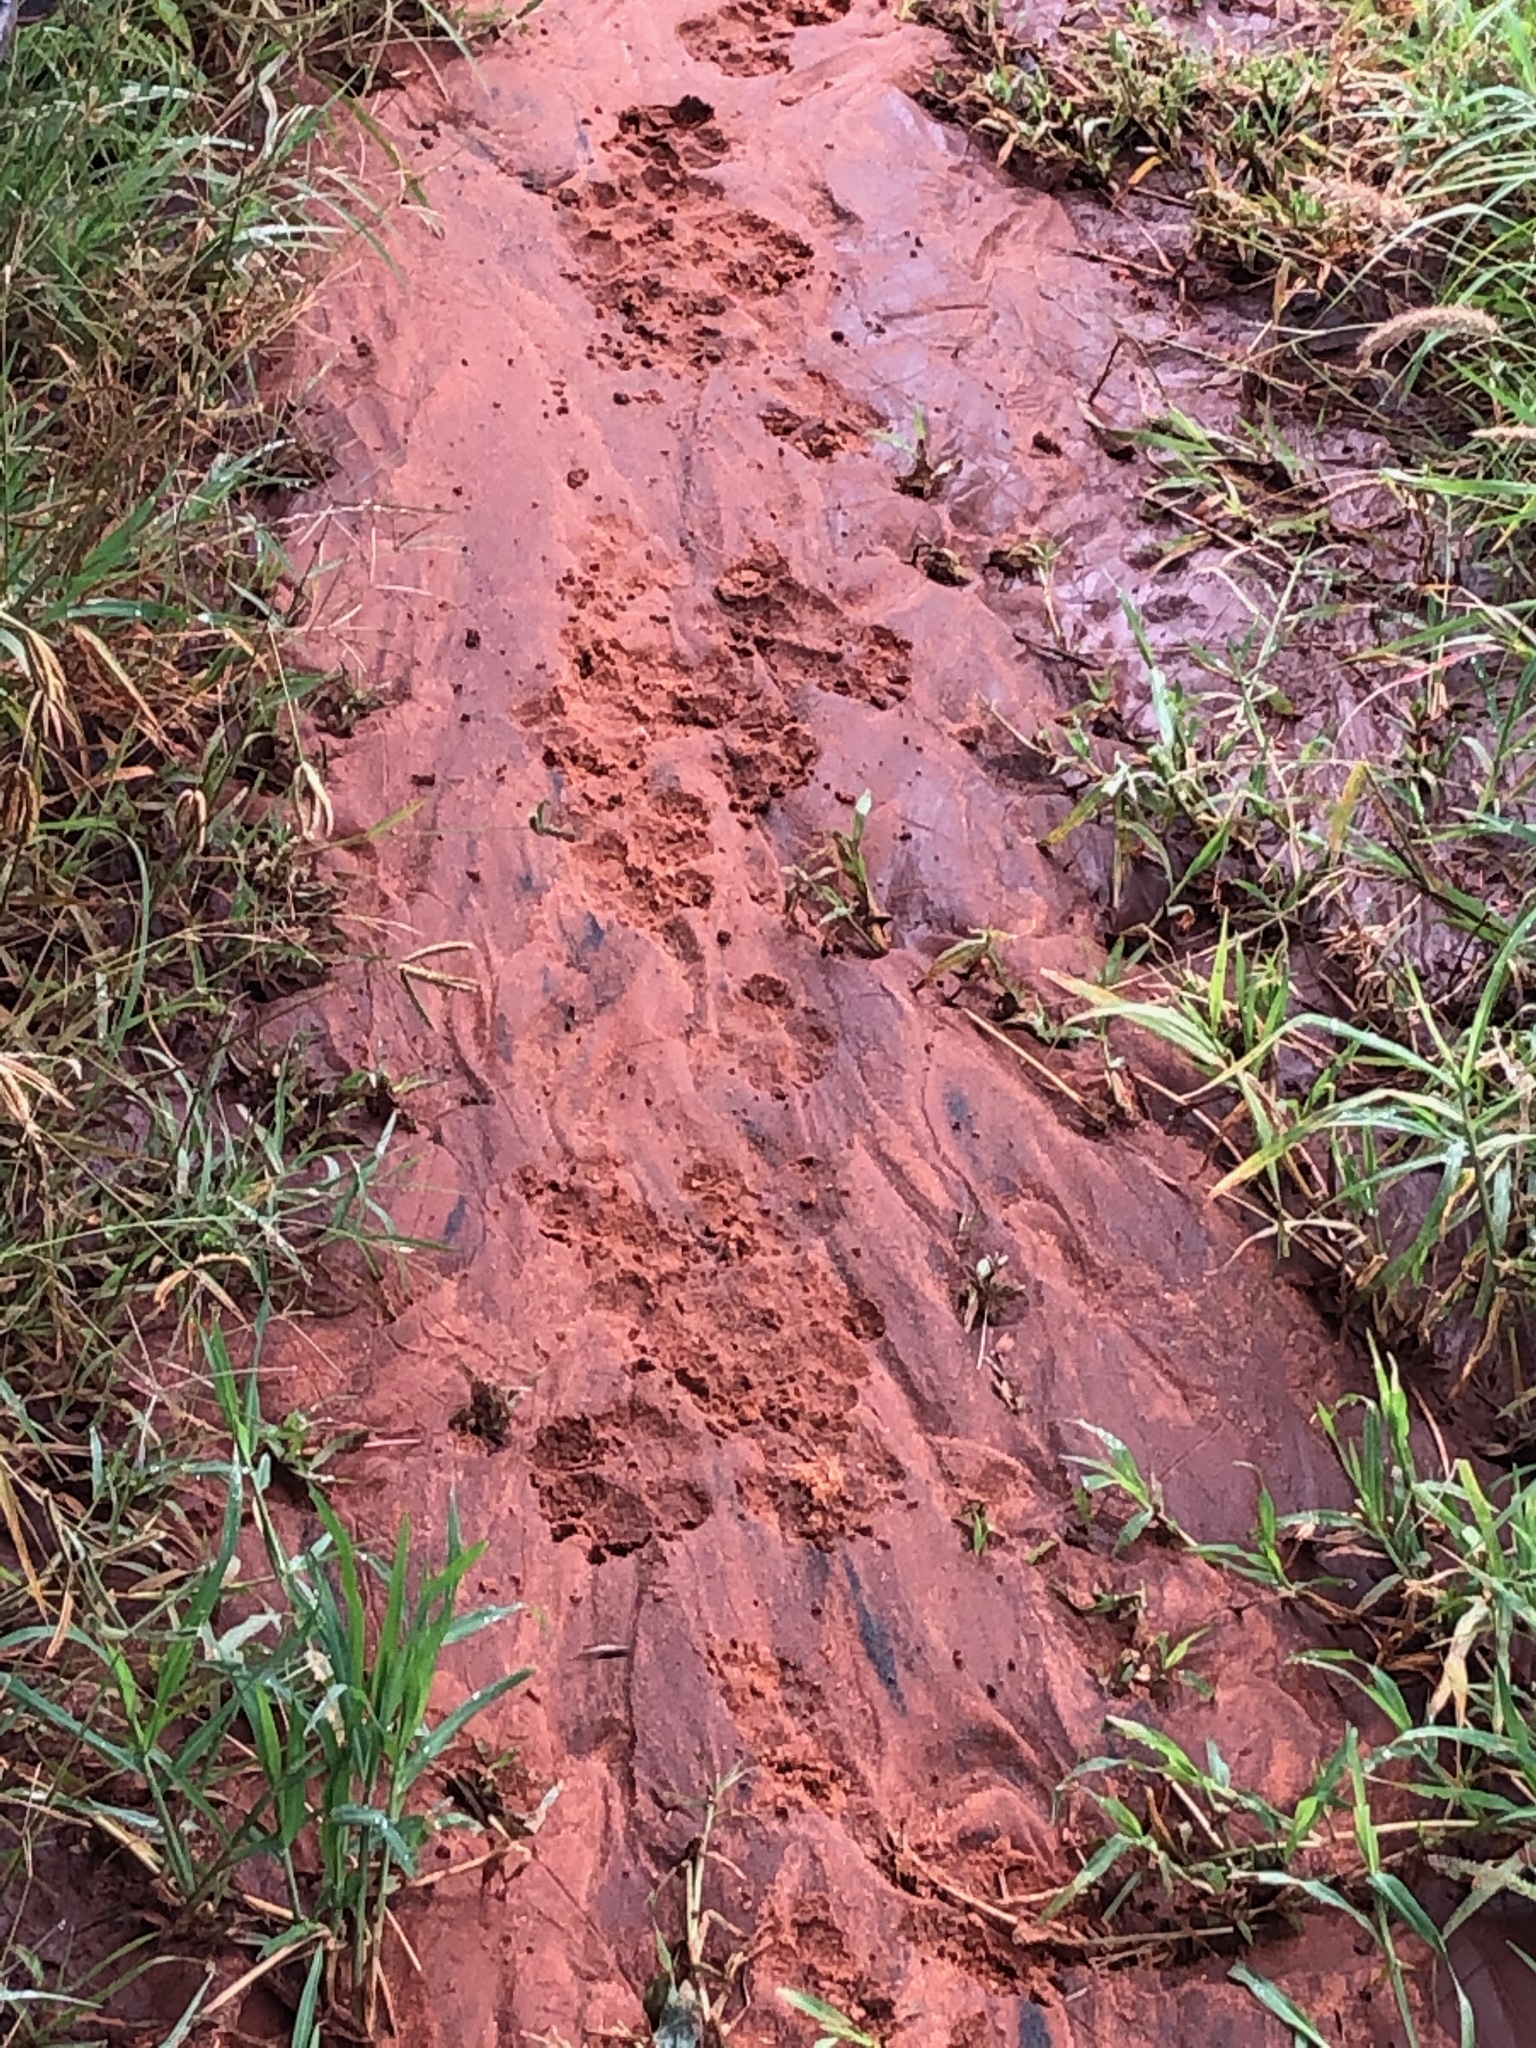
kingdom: Animalia
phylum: Chordata
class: Mammalia
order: Carnivora
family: Felidae
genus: Panthera
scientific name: Panthera leo
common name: Lion
